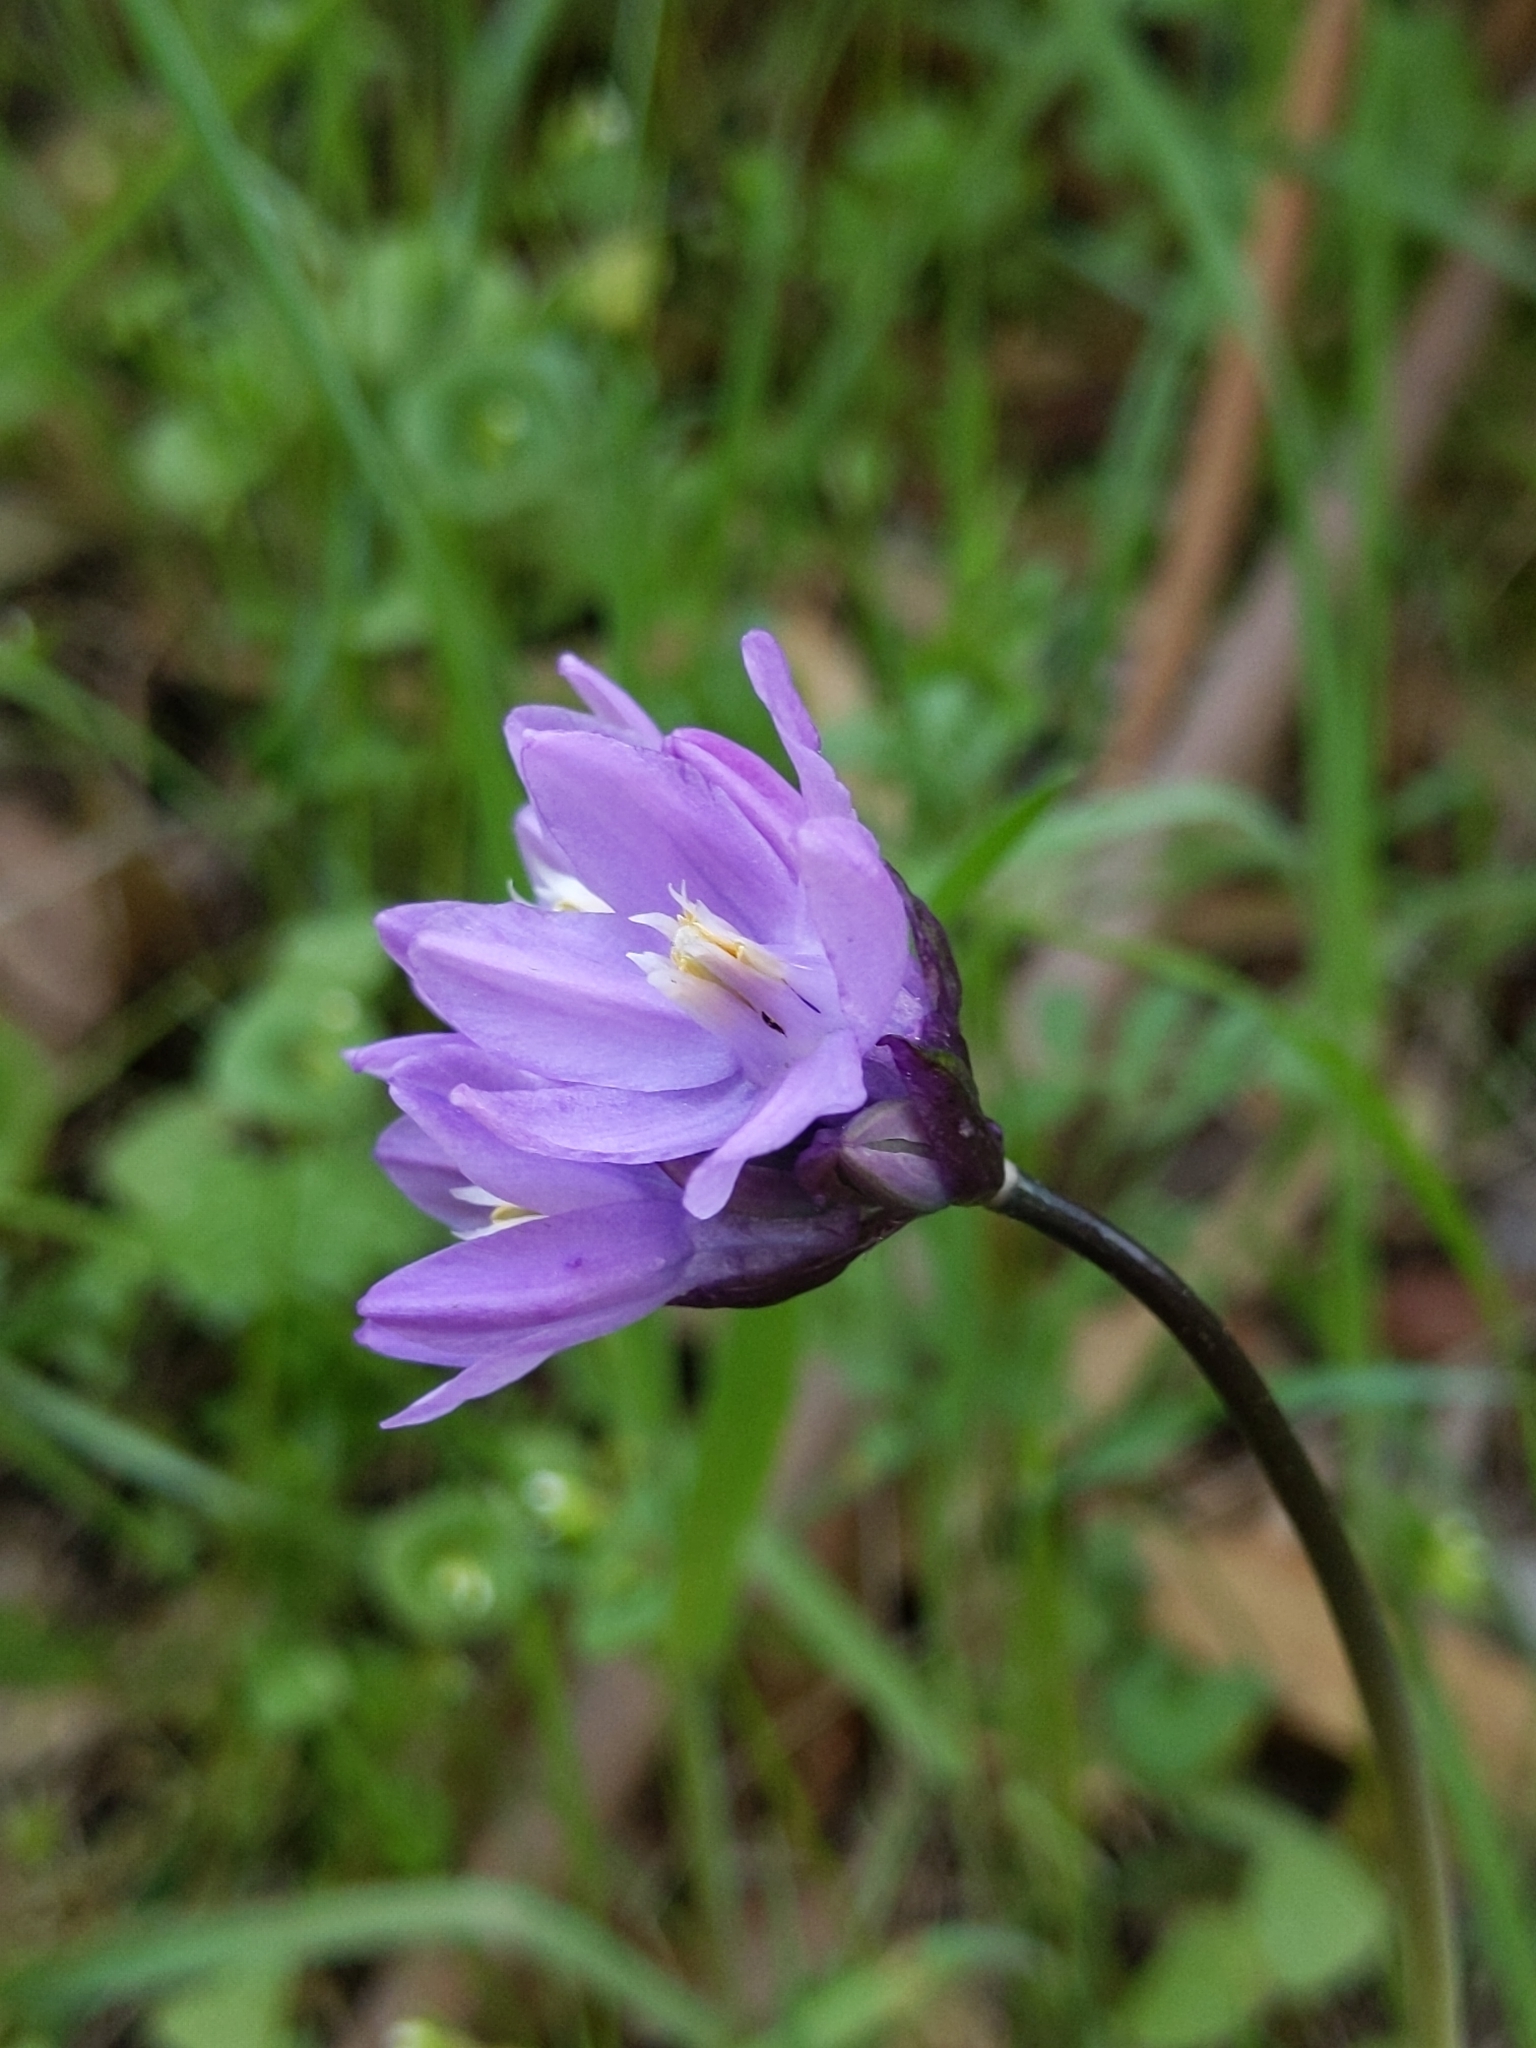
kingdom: Plantae
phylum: Tracheophyta
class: Liliopsida
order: Asparagales
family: Asparagaceae
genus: Dipterostemon
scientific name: Dipterostemon capitatus
